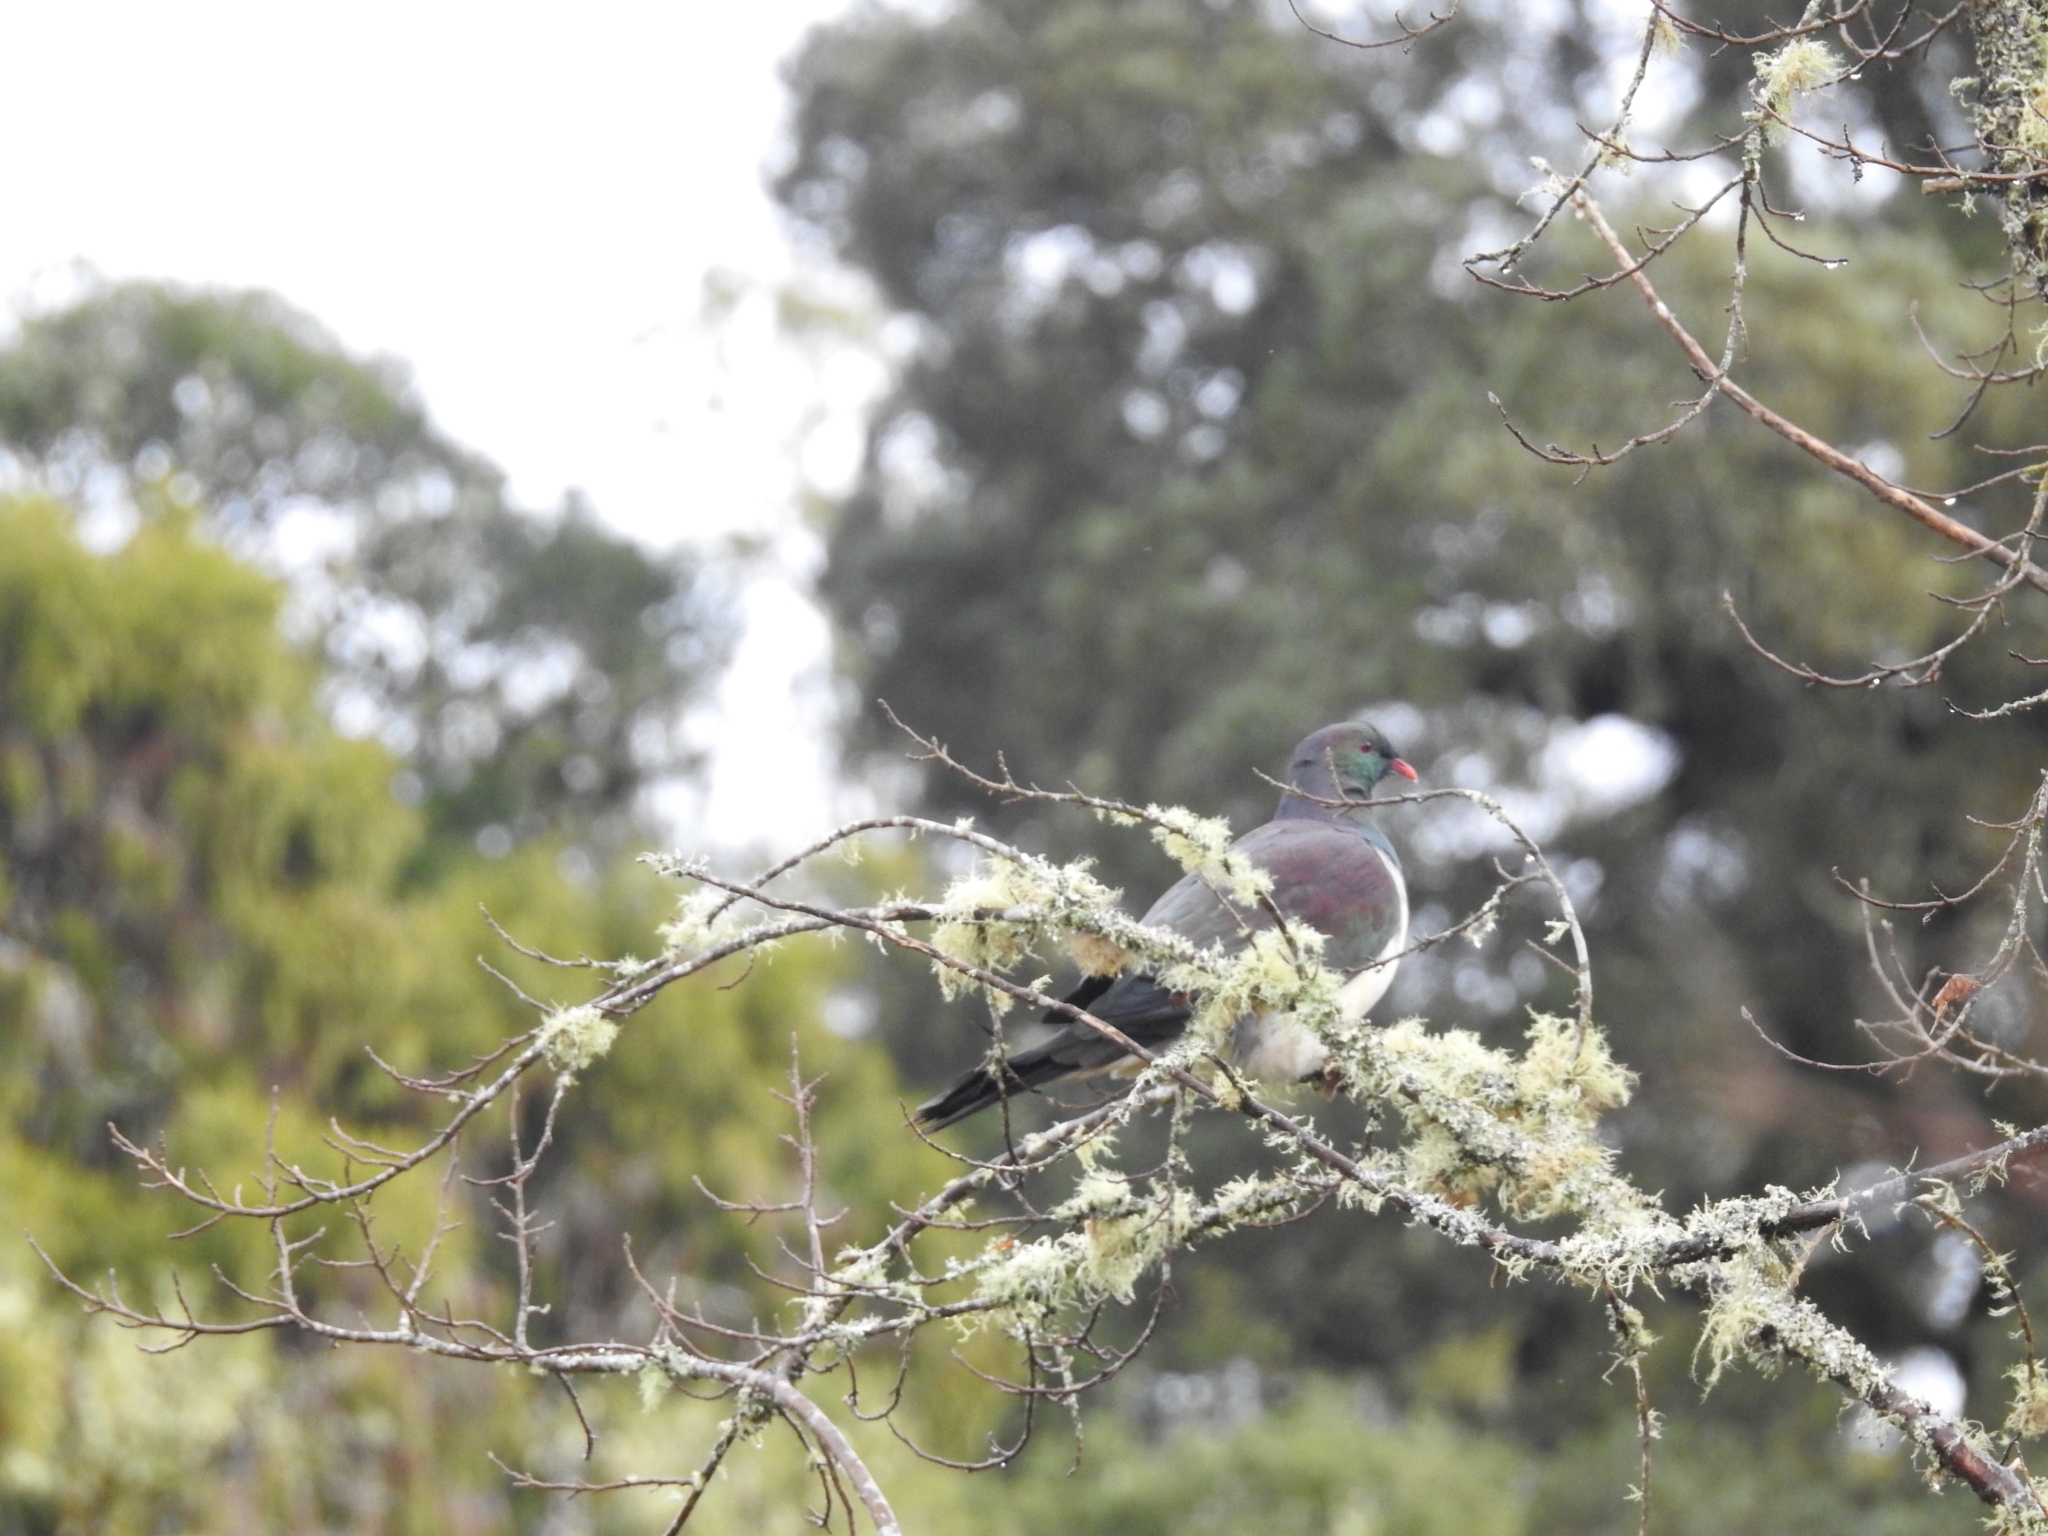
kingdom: Animalia
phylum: Chordata
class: Aves
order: Columbiformes
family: Columbidae
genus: Hemiphaga
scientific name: Hemiphaga novaeseelandiae
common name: New zealand pigeon
